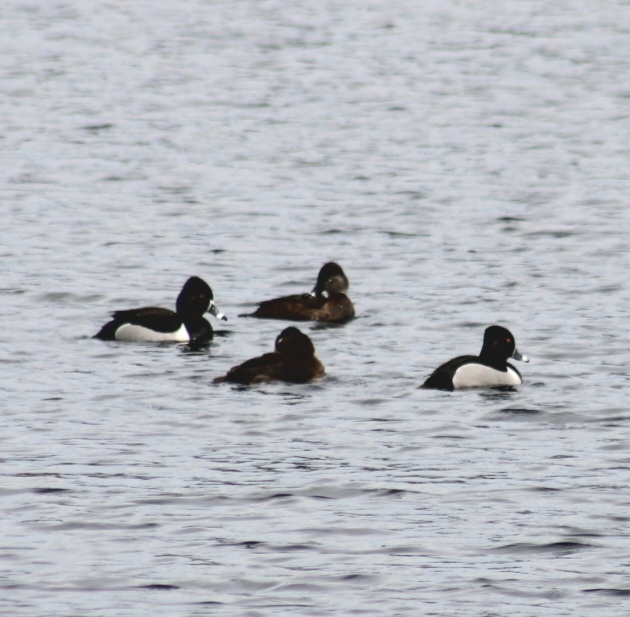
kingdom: Animalia
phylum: Chordata
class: Aves
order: Anseriformes
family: Anatidae
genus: Aythya
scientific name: Aythya collaris
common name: Ring-necked duck
